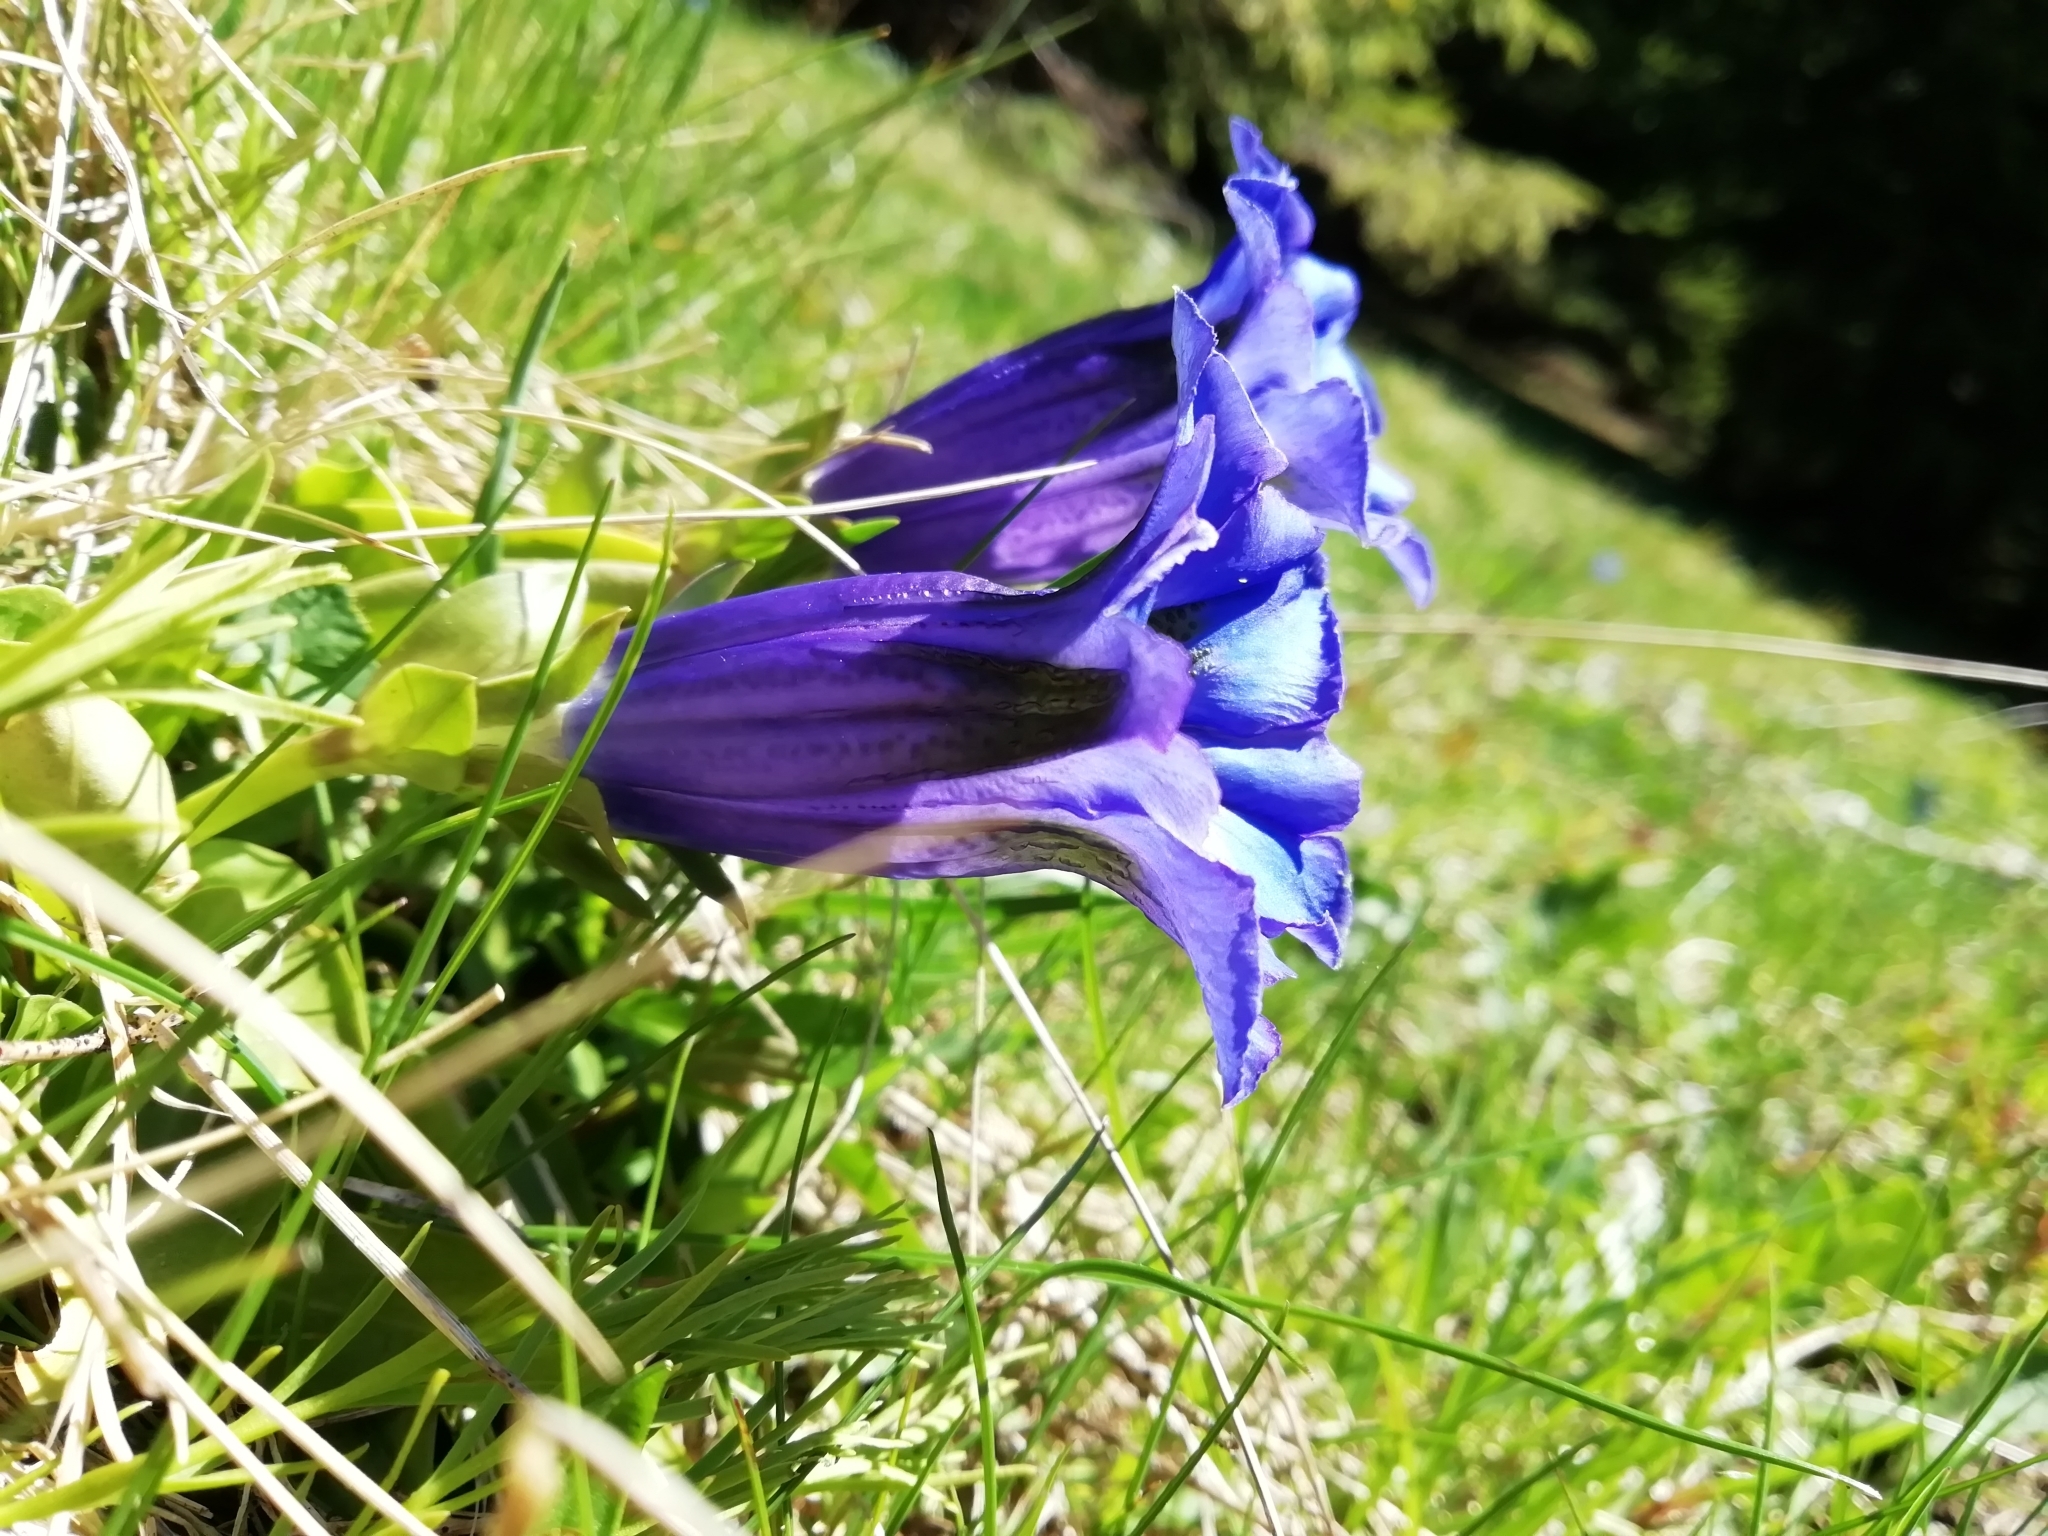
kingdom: Plantae
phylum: Tracheophyta
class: Magnoliopsida
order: Gentianales
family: Gentianaceae
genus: Gentiana
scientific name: Gentiana acaulis
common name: Trumpet gentian
